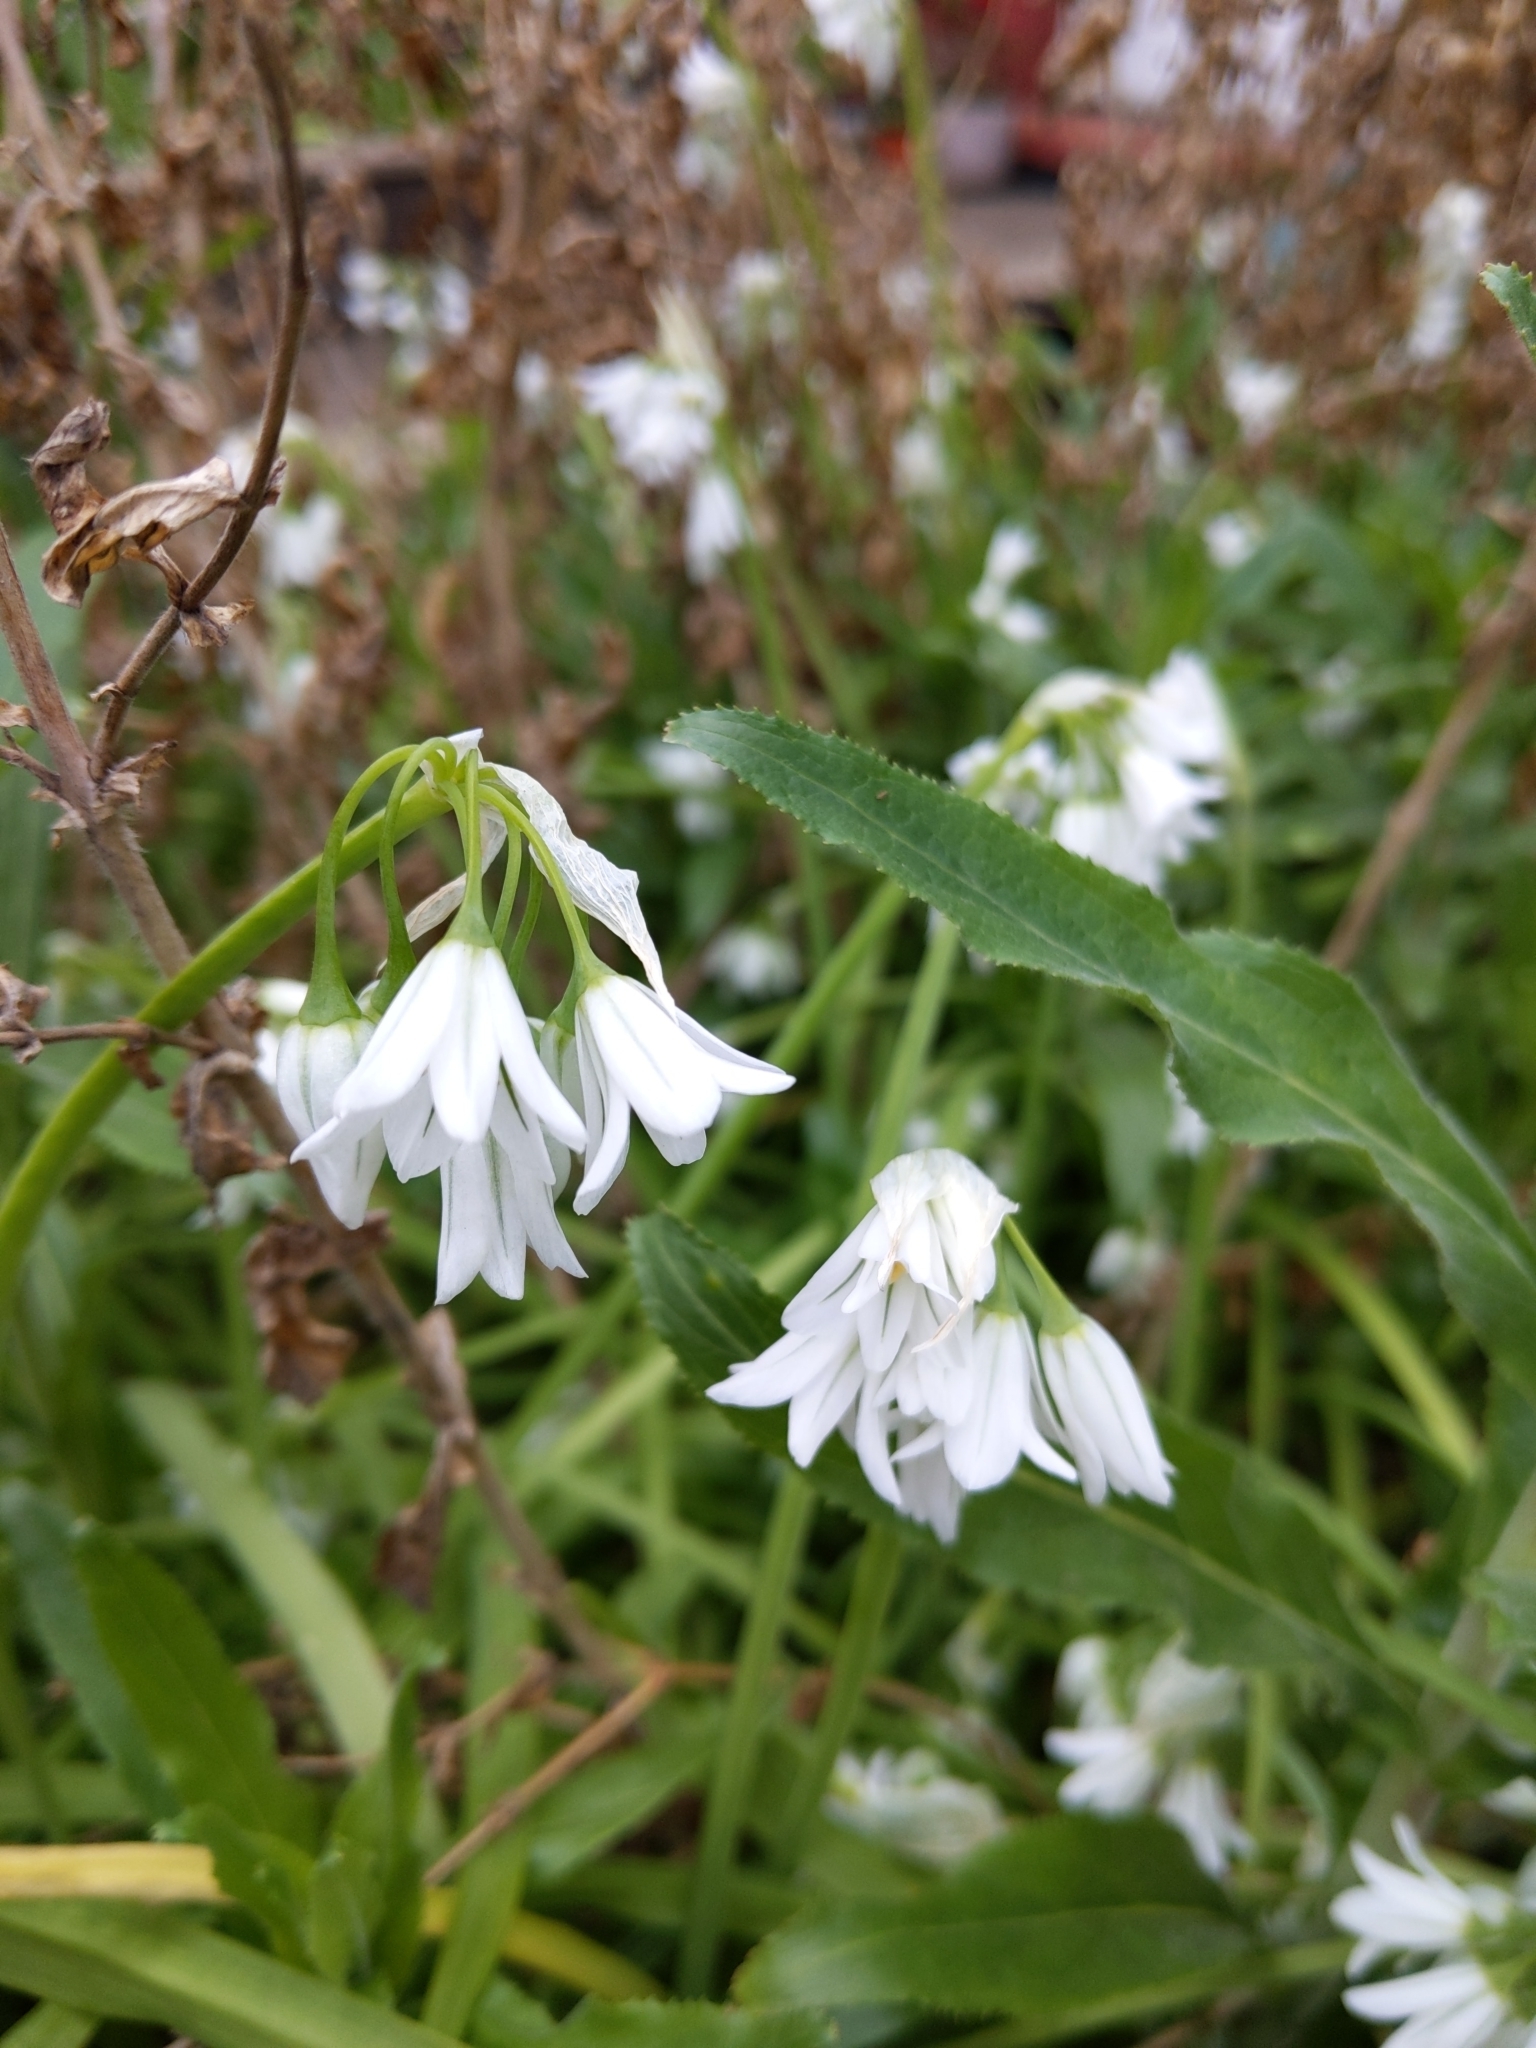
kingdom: Plantae
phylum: Tracheophyta
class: Liliopsida
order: Asparagales
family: Amaryllidaceae
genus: Allium
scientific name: Allium triquetrum
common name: Three-cornered garlic
